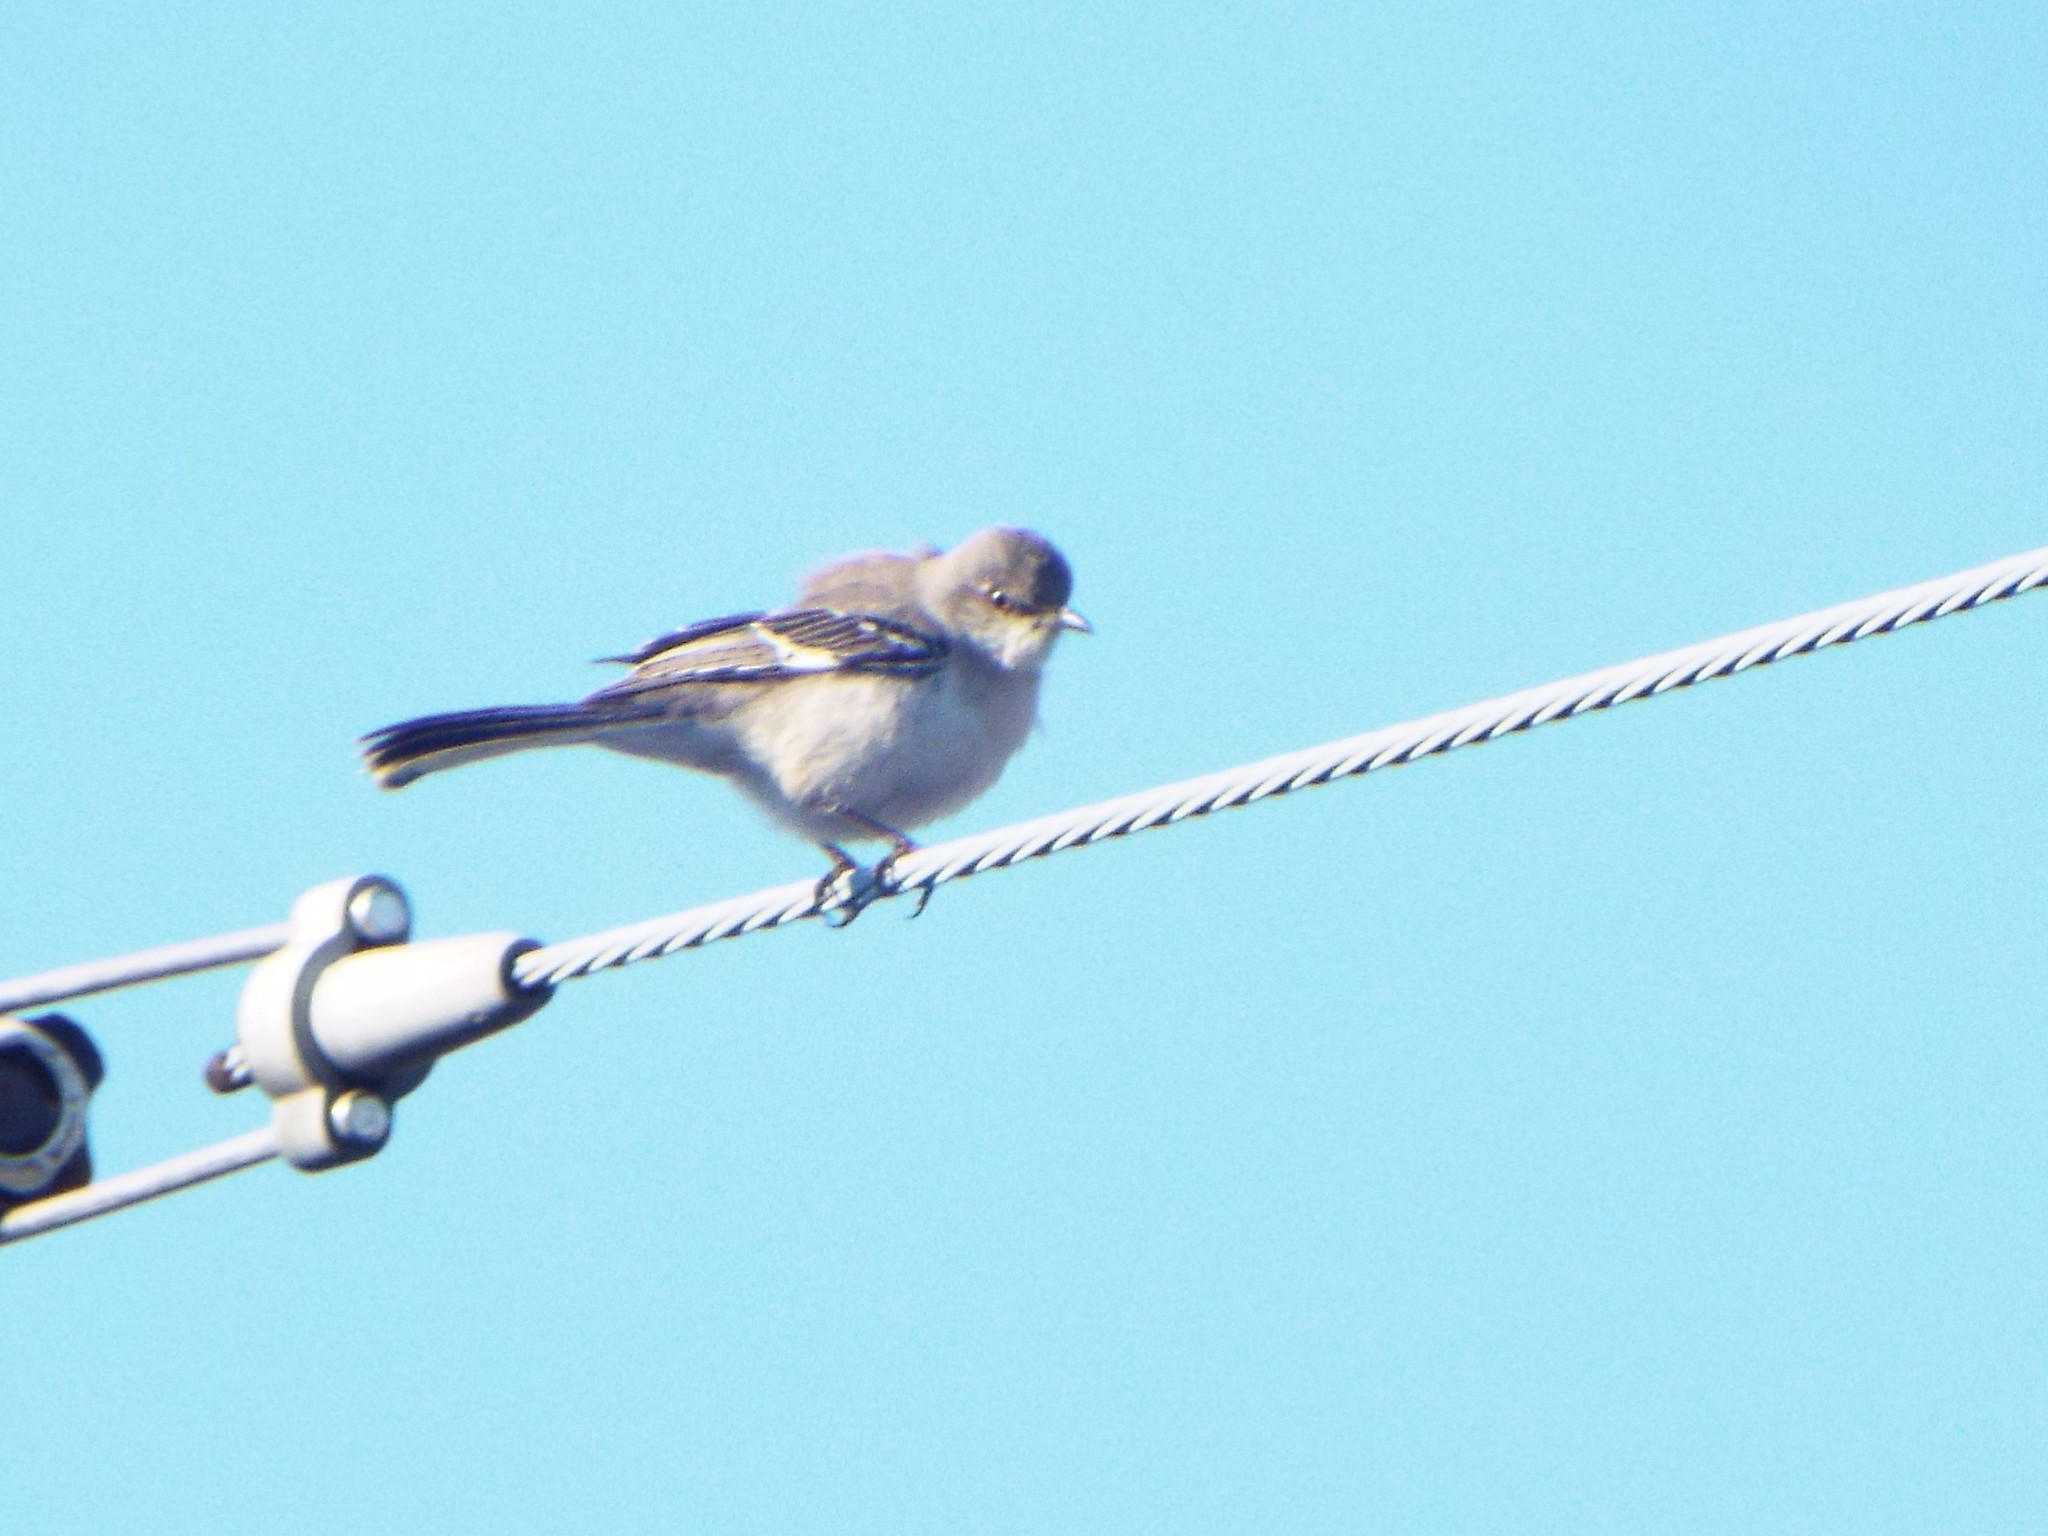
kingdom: Animalia
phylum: Chordata
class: Aves
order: Passeriformes
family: Mimidae
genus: Mimus
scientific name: Mimus polyglottos
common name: Northern mockingbird
